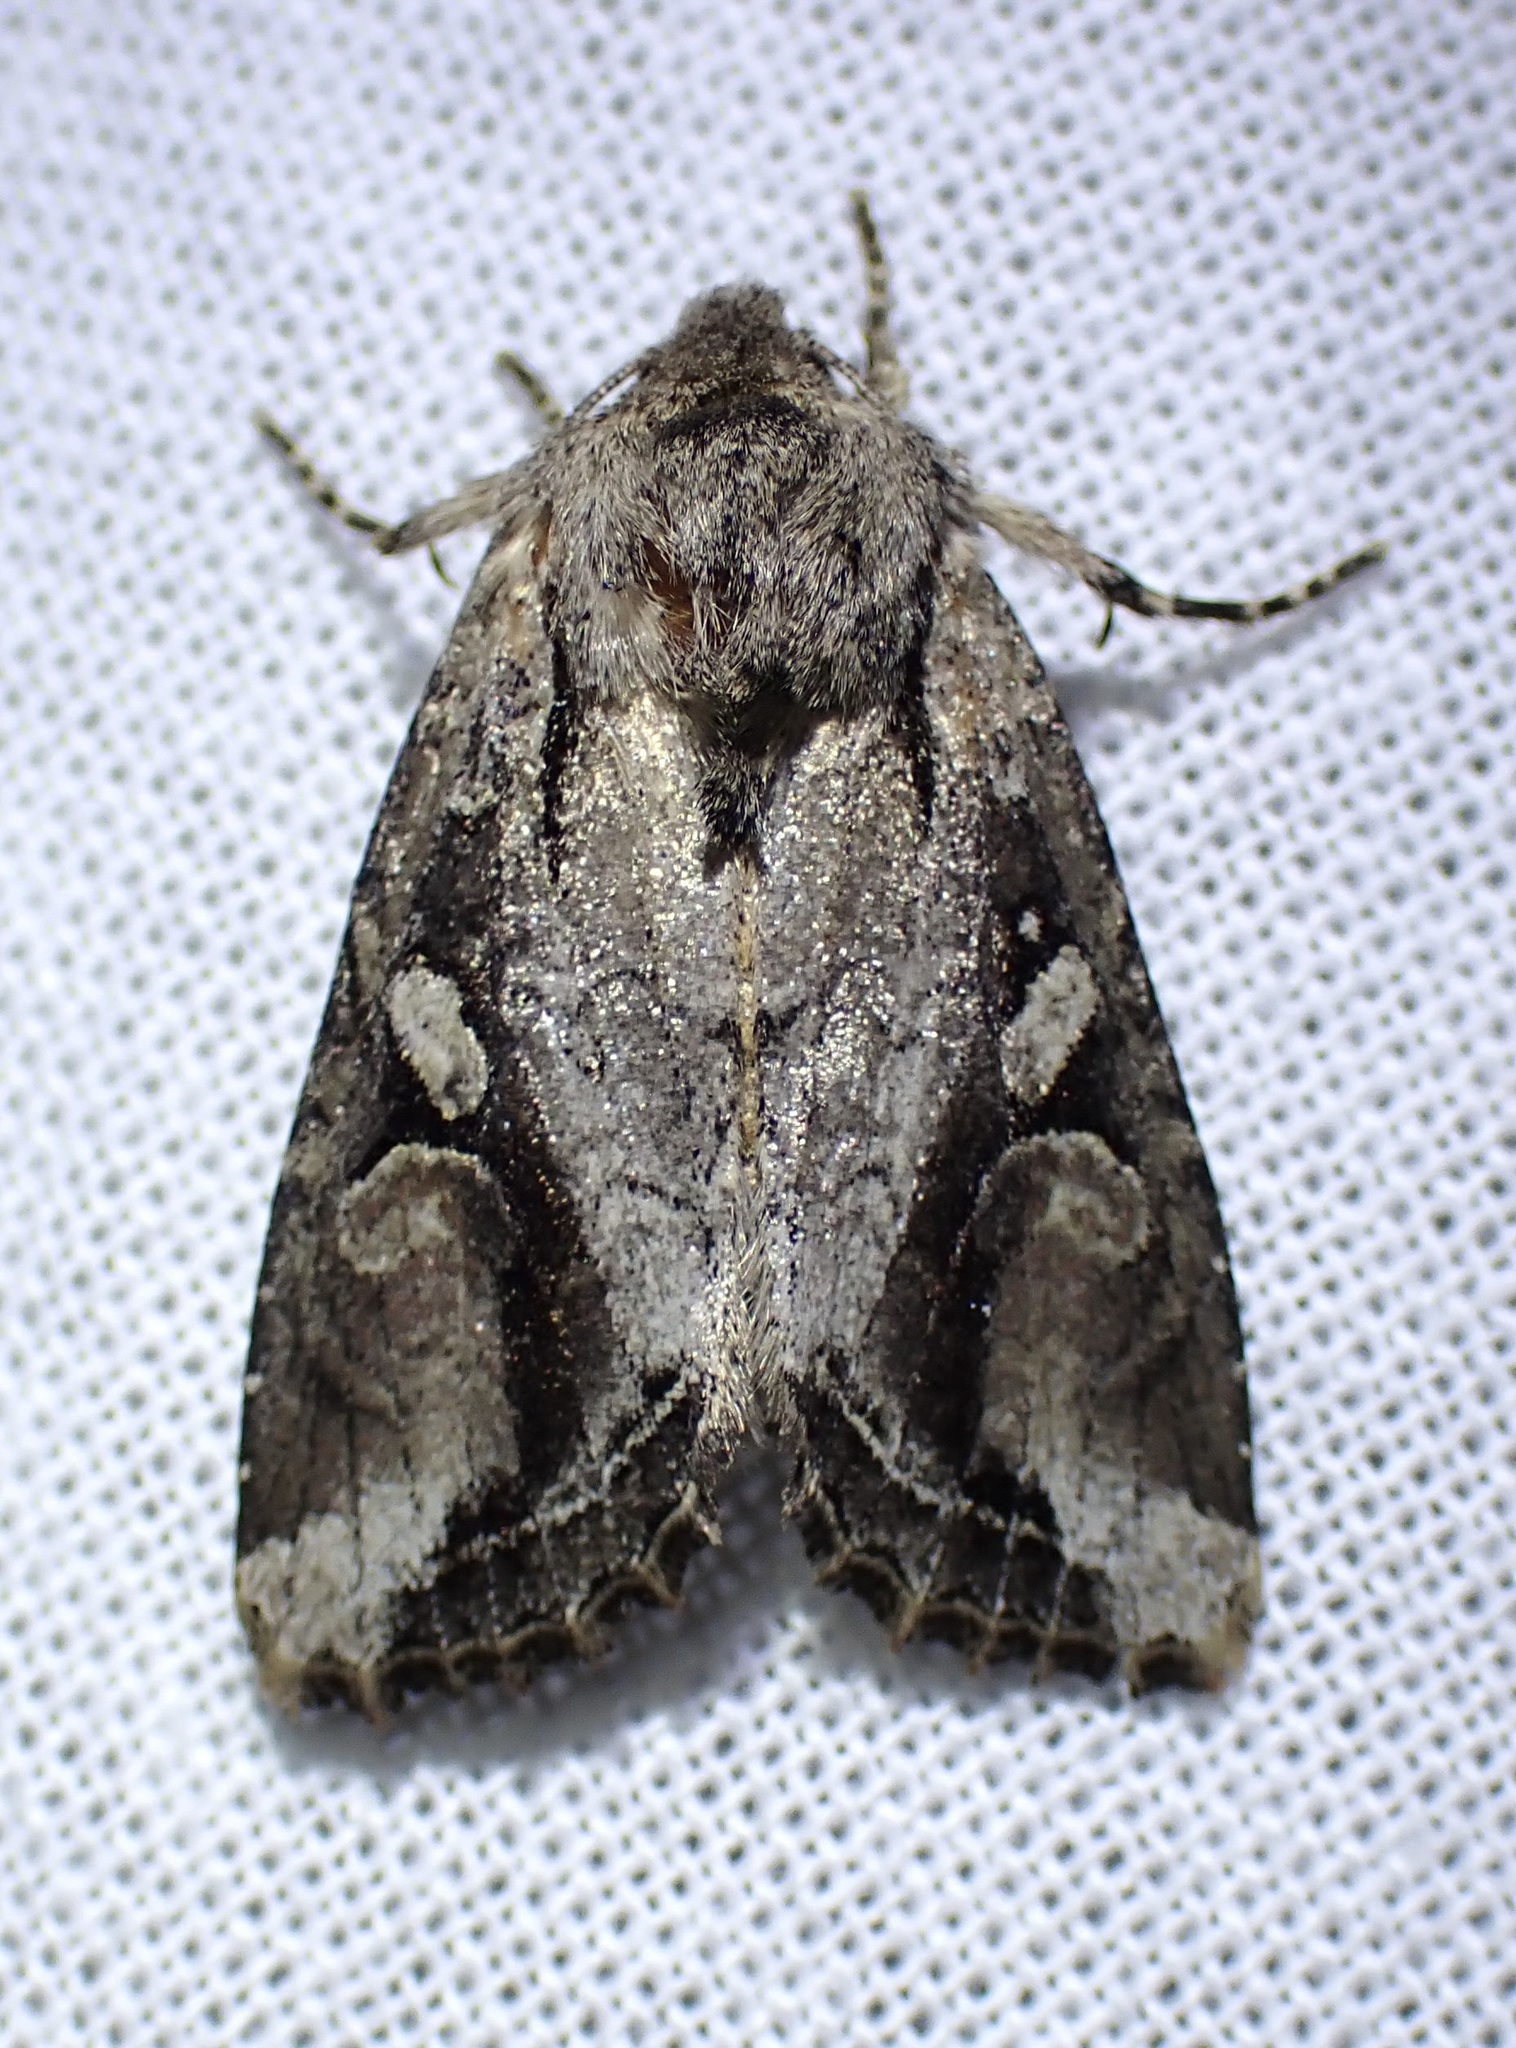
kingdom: Animalia
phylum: Arthropoda
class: Insecta
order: Lepidoptera
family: Noctuidae
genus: Egira
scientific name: Egira rubrica
